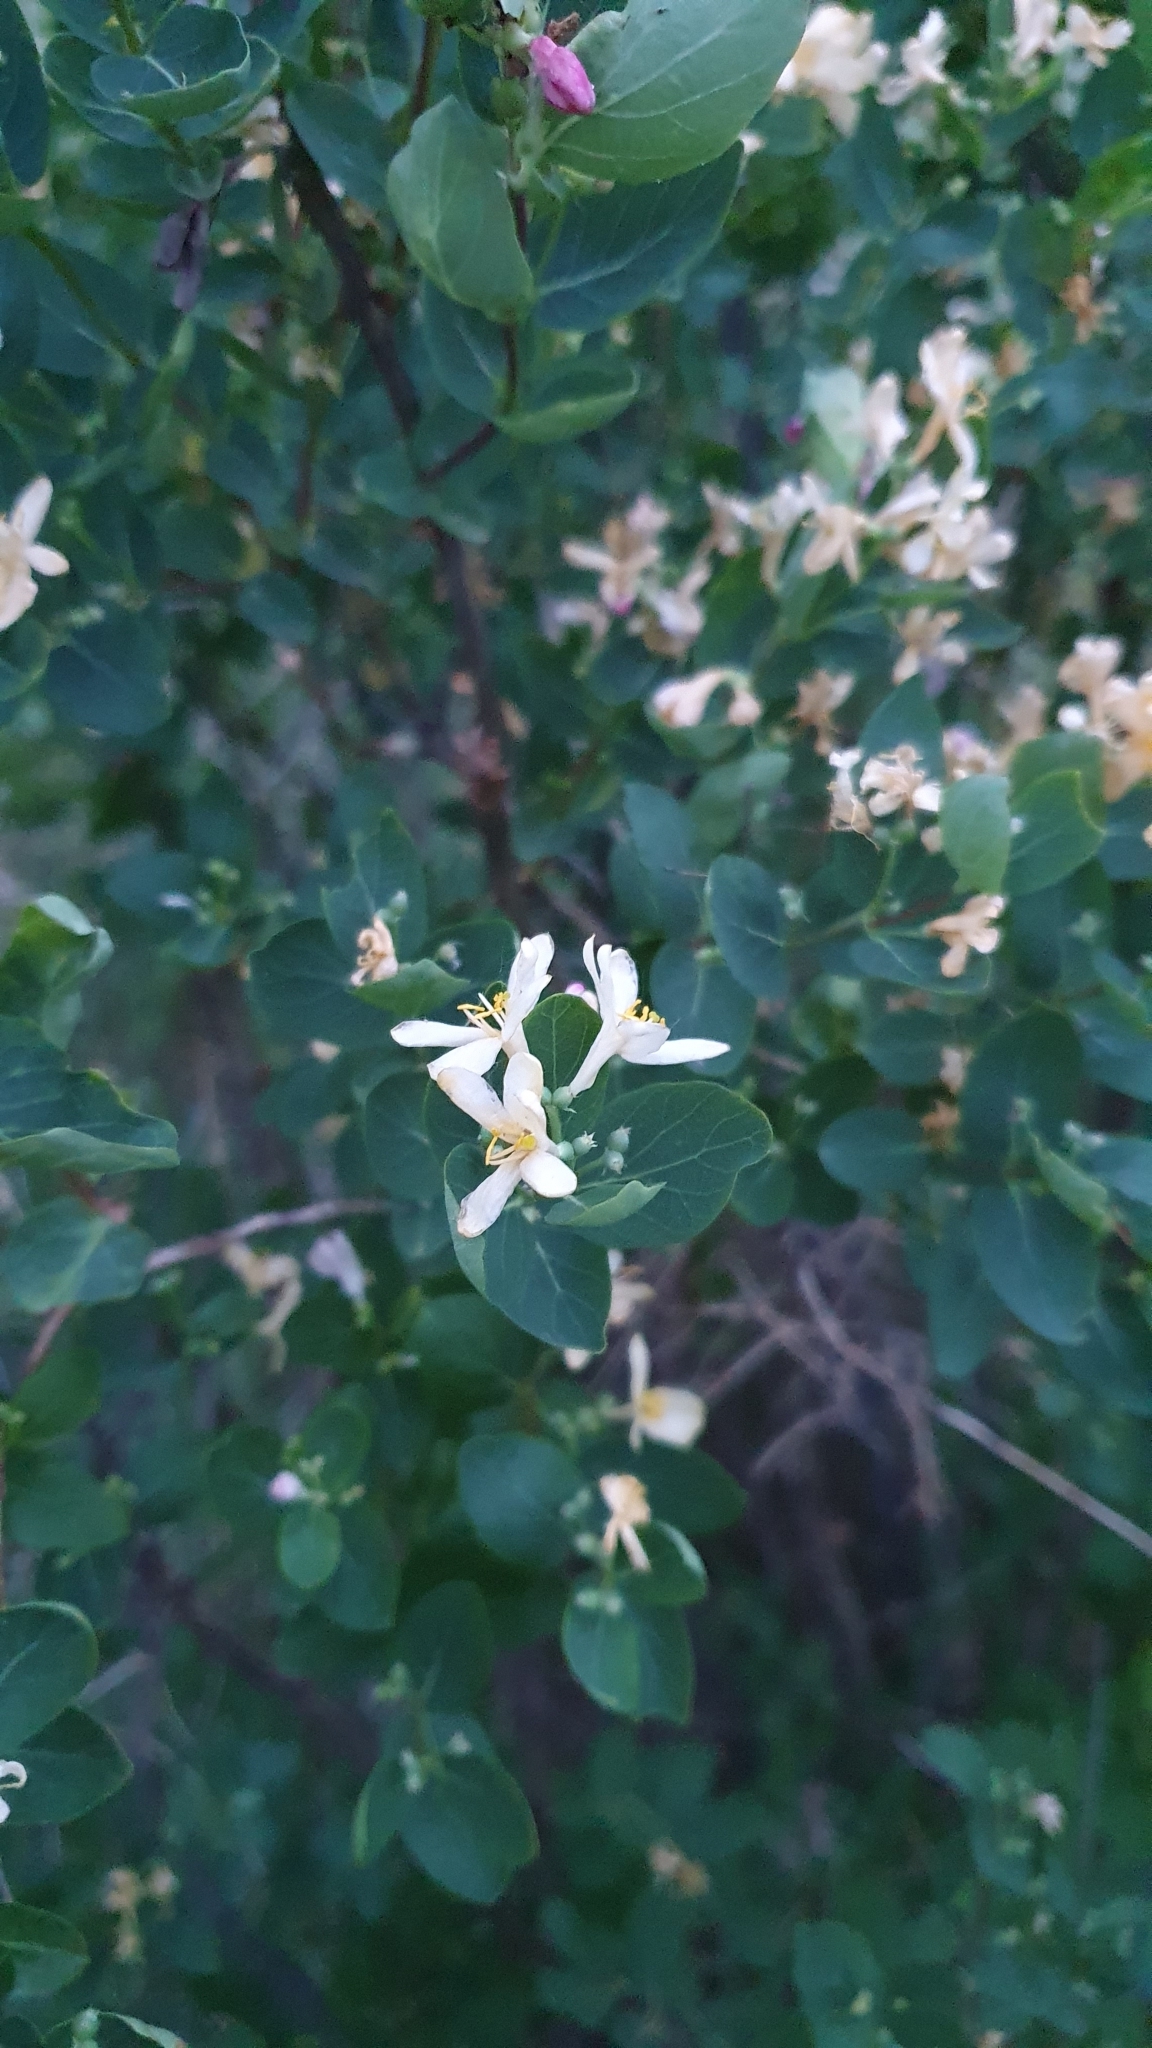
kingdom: Plantae
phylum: Tracheophyta
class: Magnoliopsida
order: Dipsacales
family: Caprifoliaceae
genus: Lonicera
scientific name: Lonicera tatarica
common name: Tatarian honeysuckle
